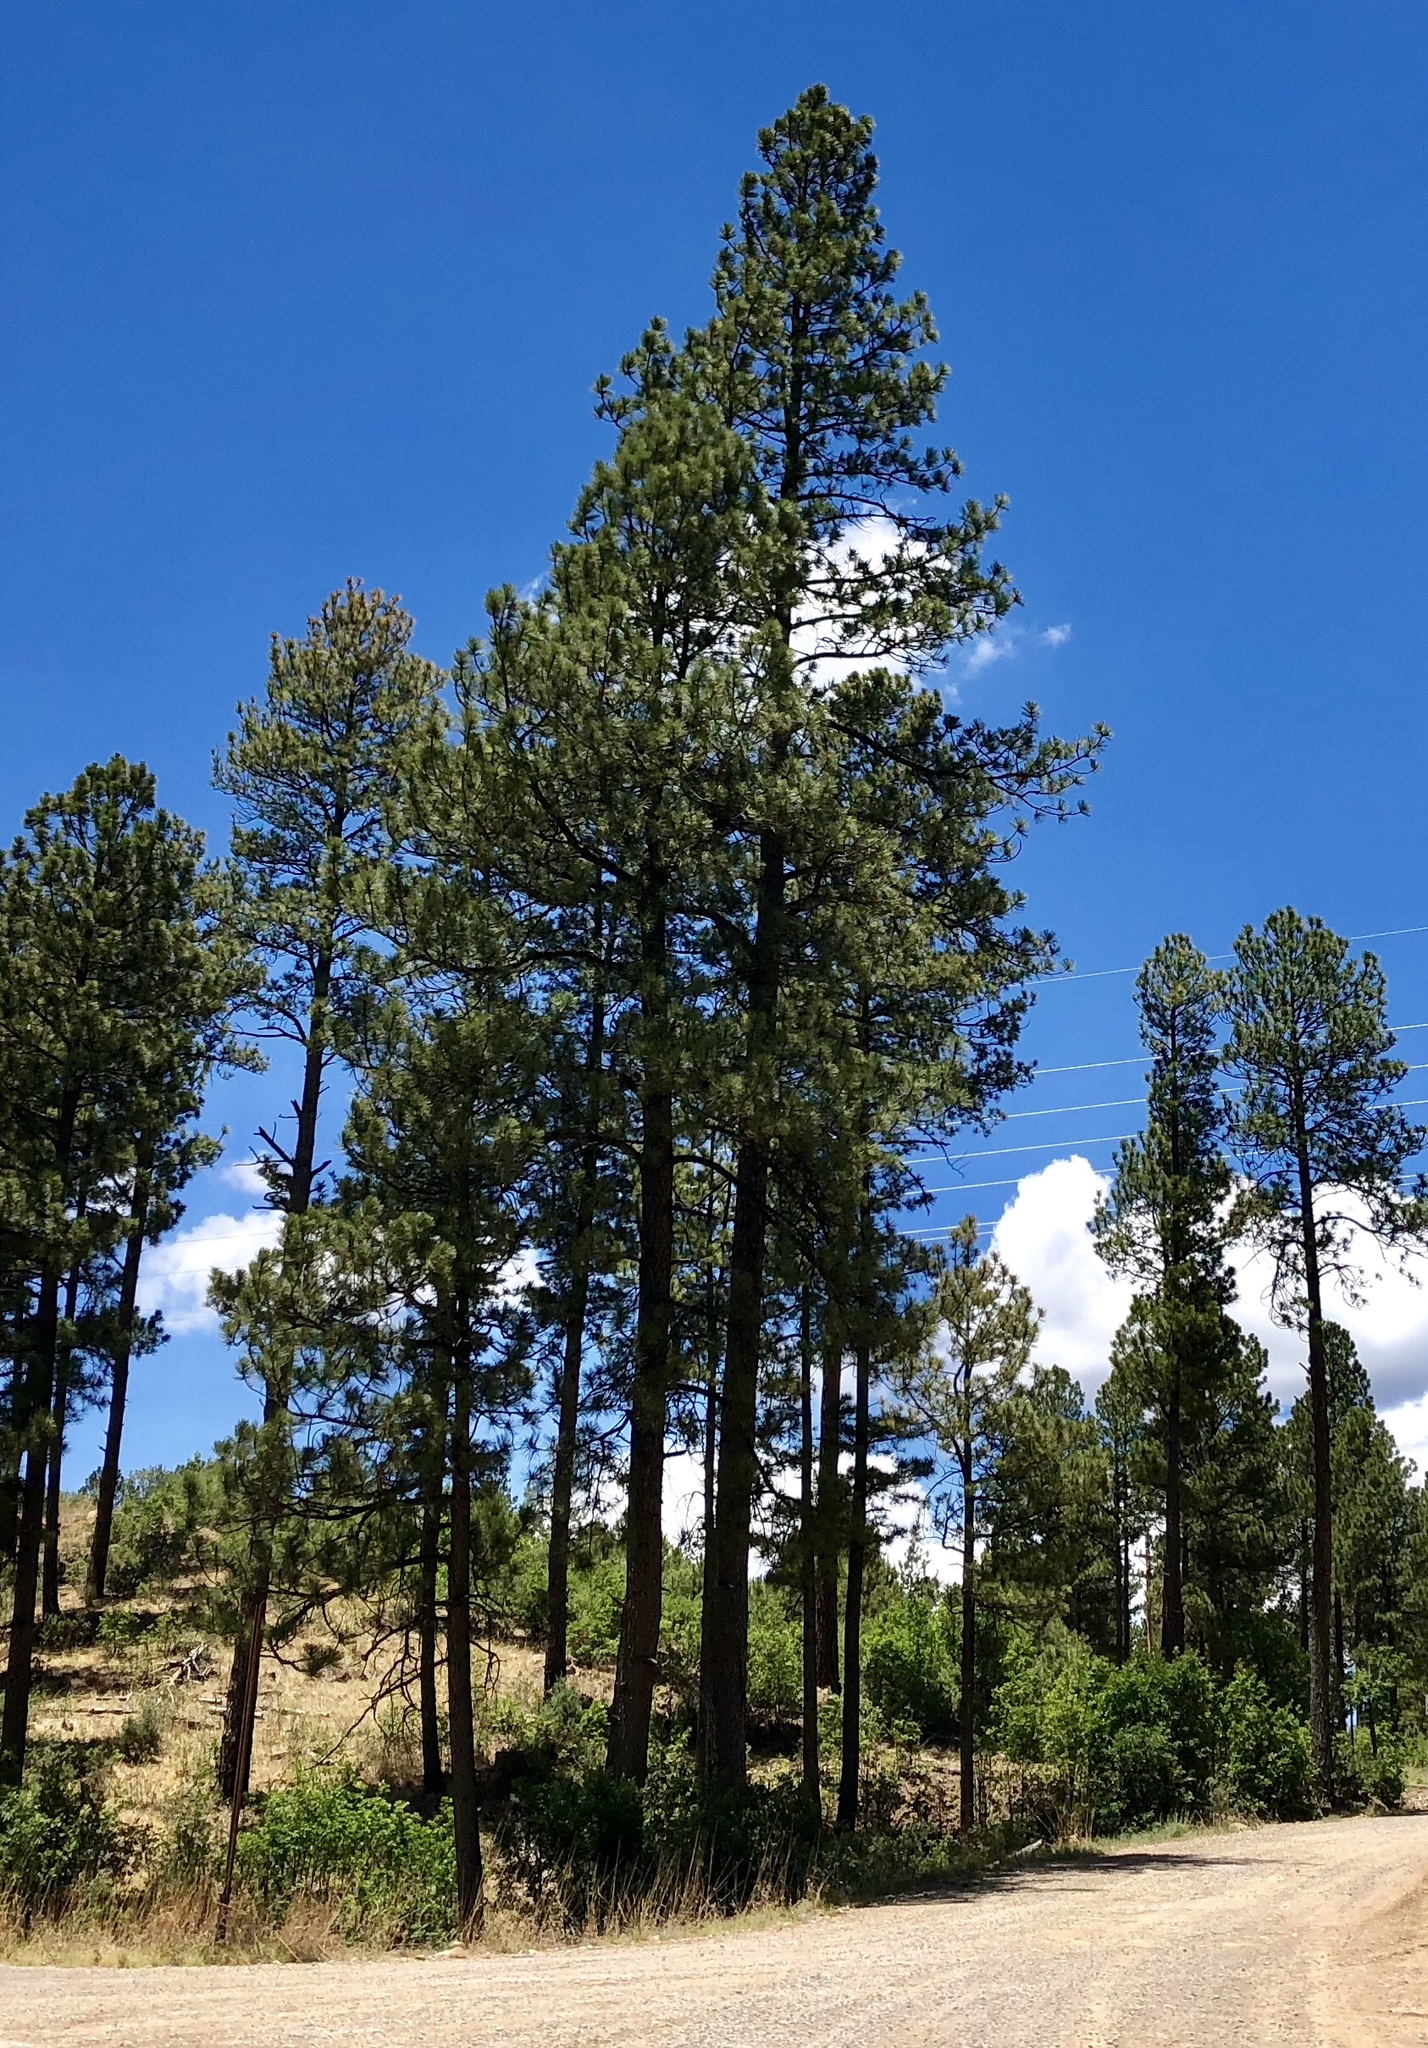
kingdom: Plantae
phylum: Tracheophyta
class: Pinopsida
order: Pinales
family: Pinaceae
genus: Pinus
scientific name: Pinus ponderosa
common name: Western yellow-pine
